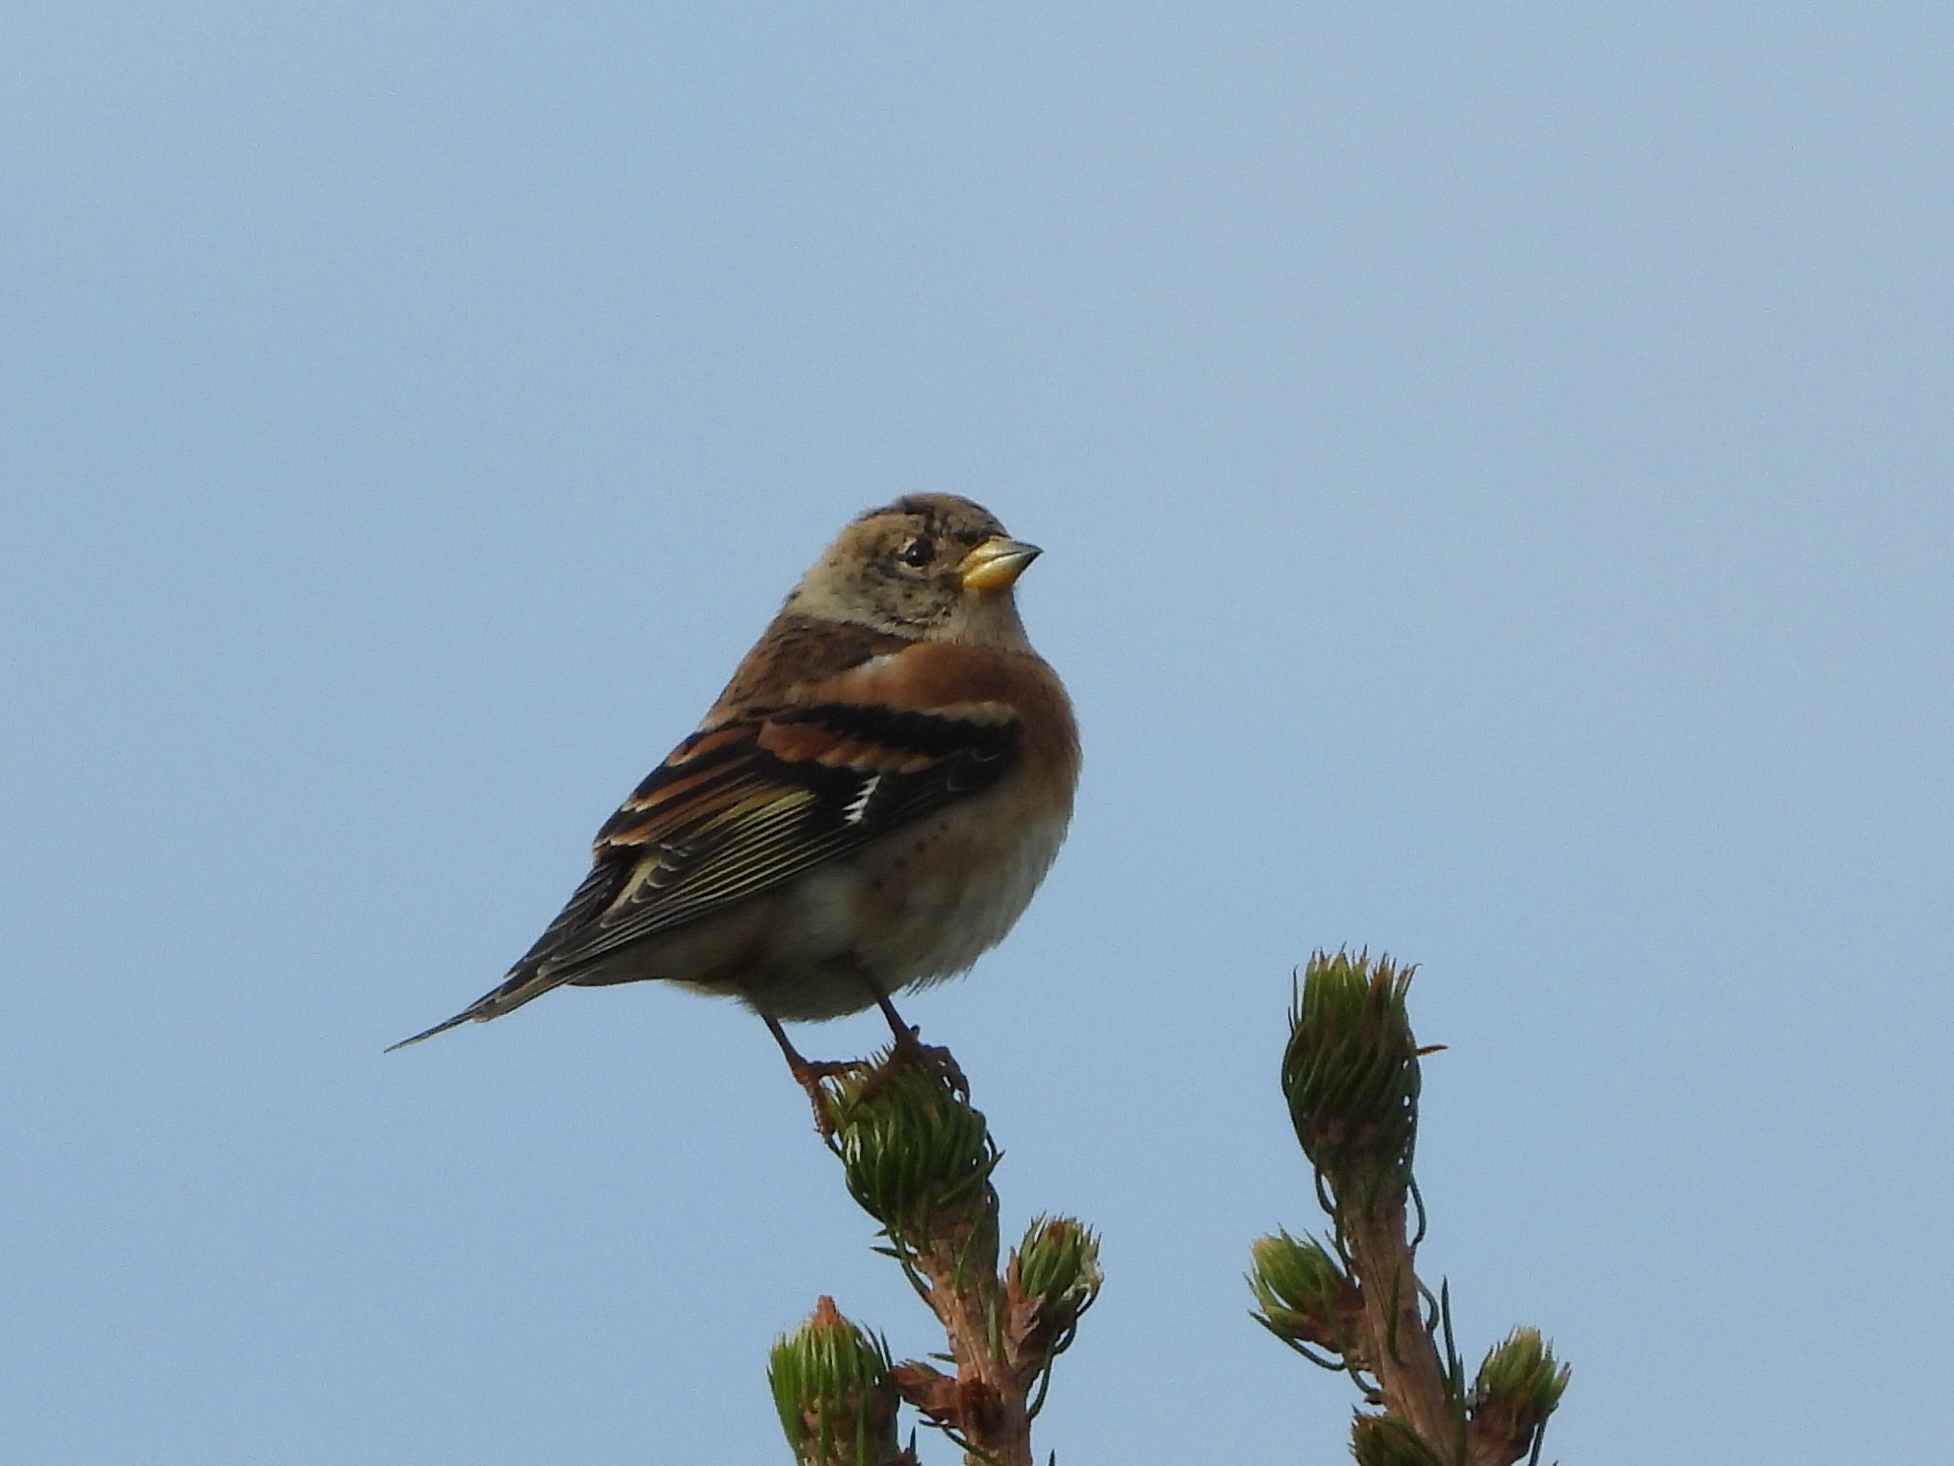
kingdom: Animalia
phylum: Chordata
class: Aves
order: Passeriformes
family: Fringillidae
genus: Fringilla
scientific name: Fringilla montifringilla
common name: Brambling
